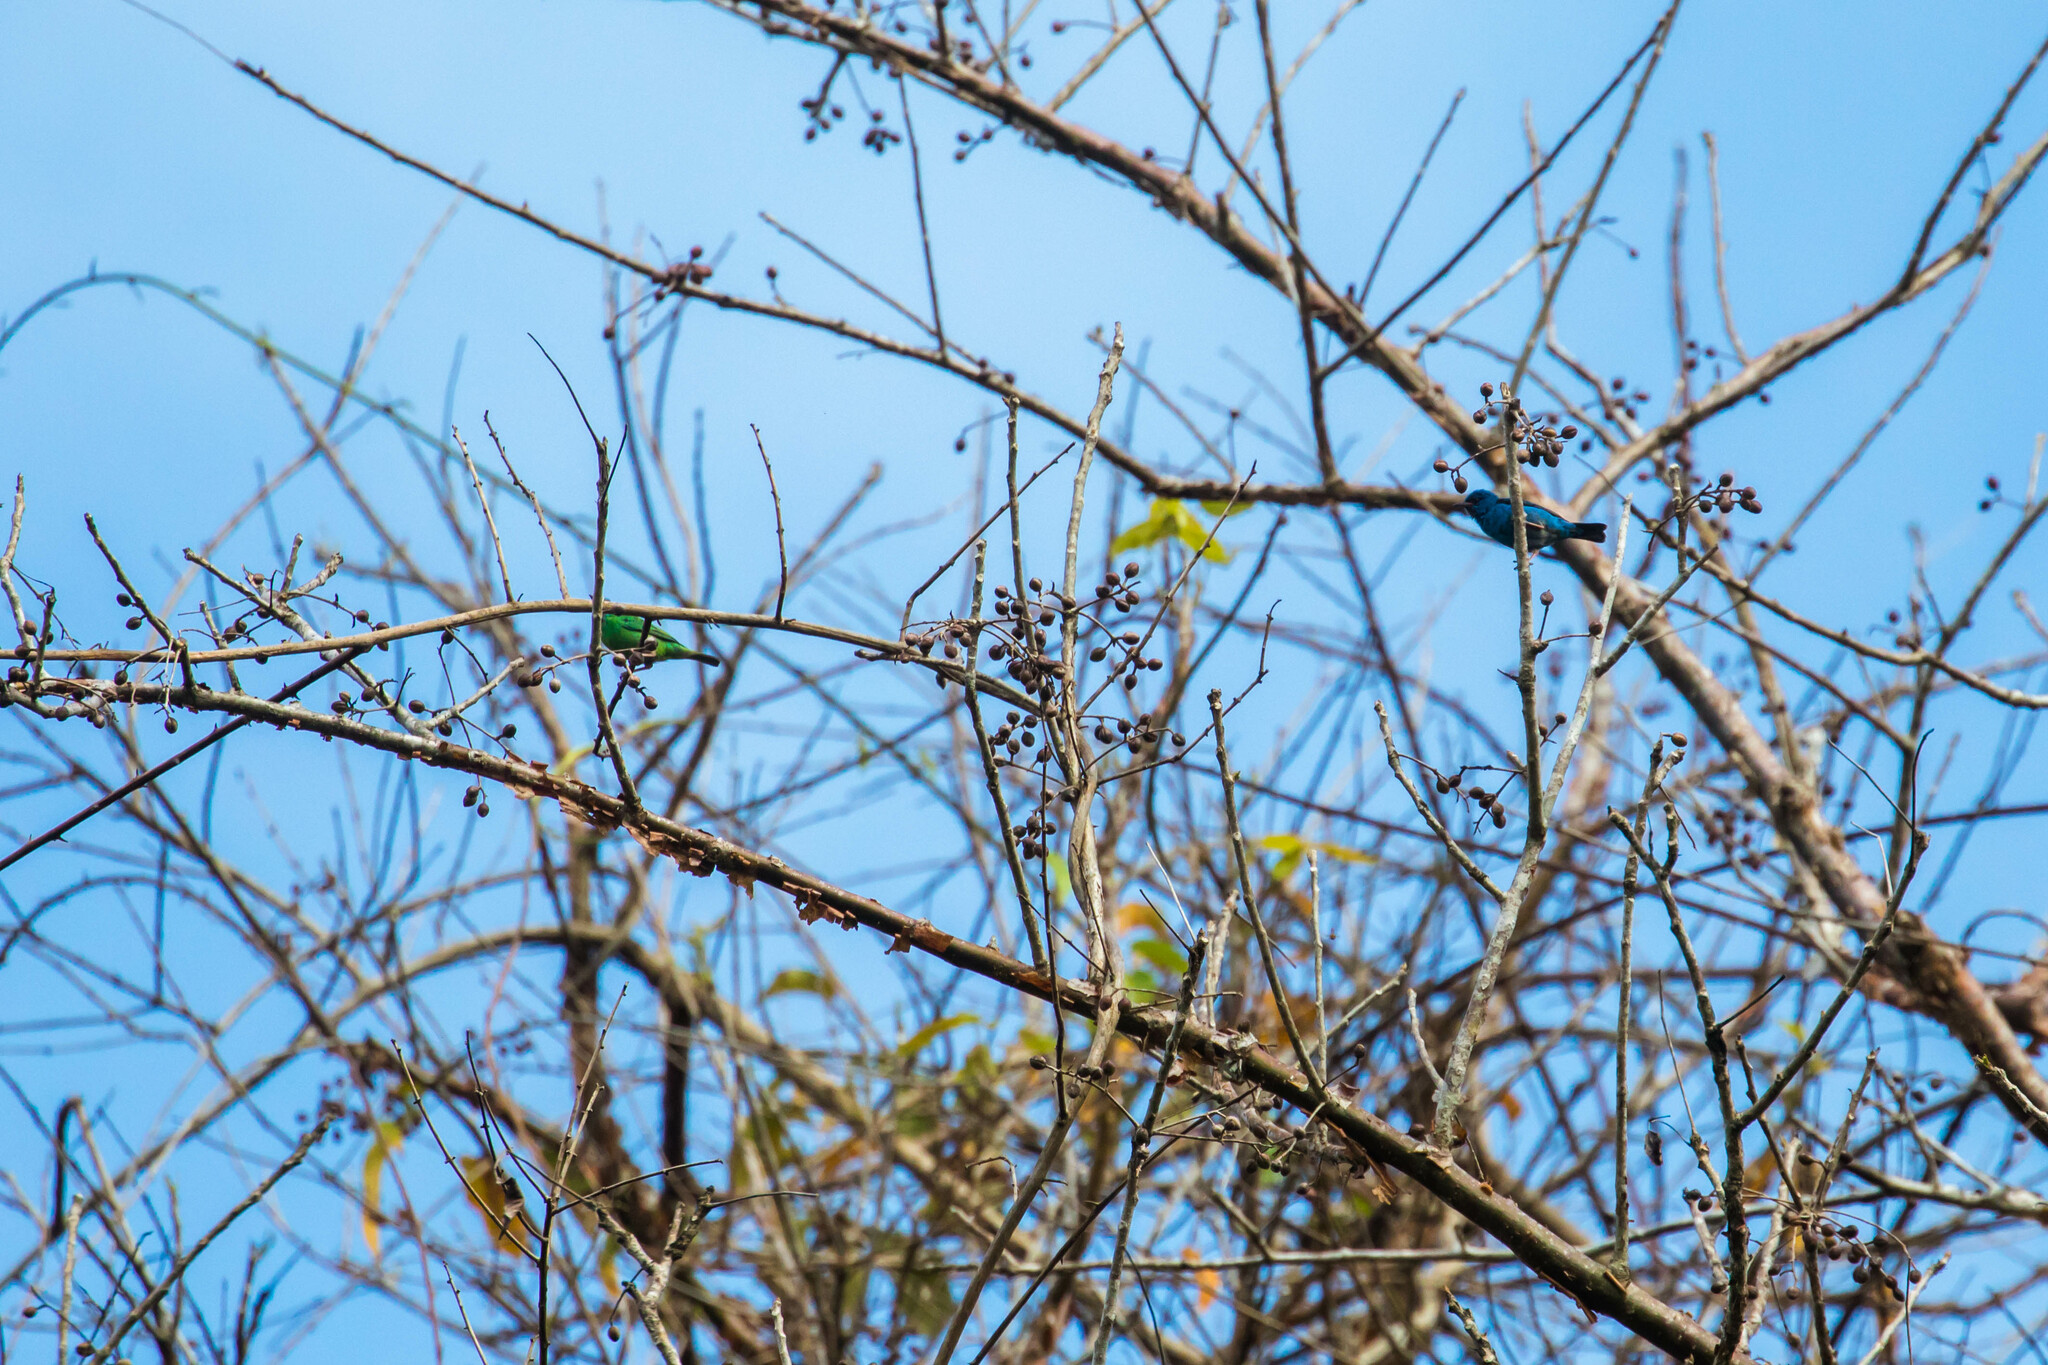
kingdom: Animalia
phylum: Chordata
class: Aves
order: Passeriformes
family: Thraupidae
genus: Dacnis
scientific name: Dacnis cayana
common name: Blue dacnis
